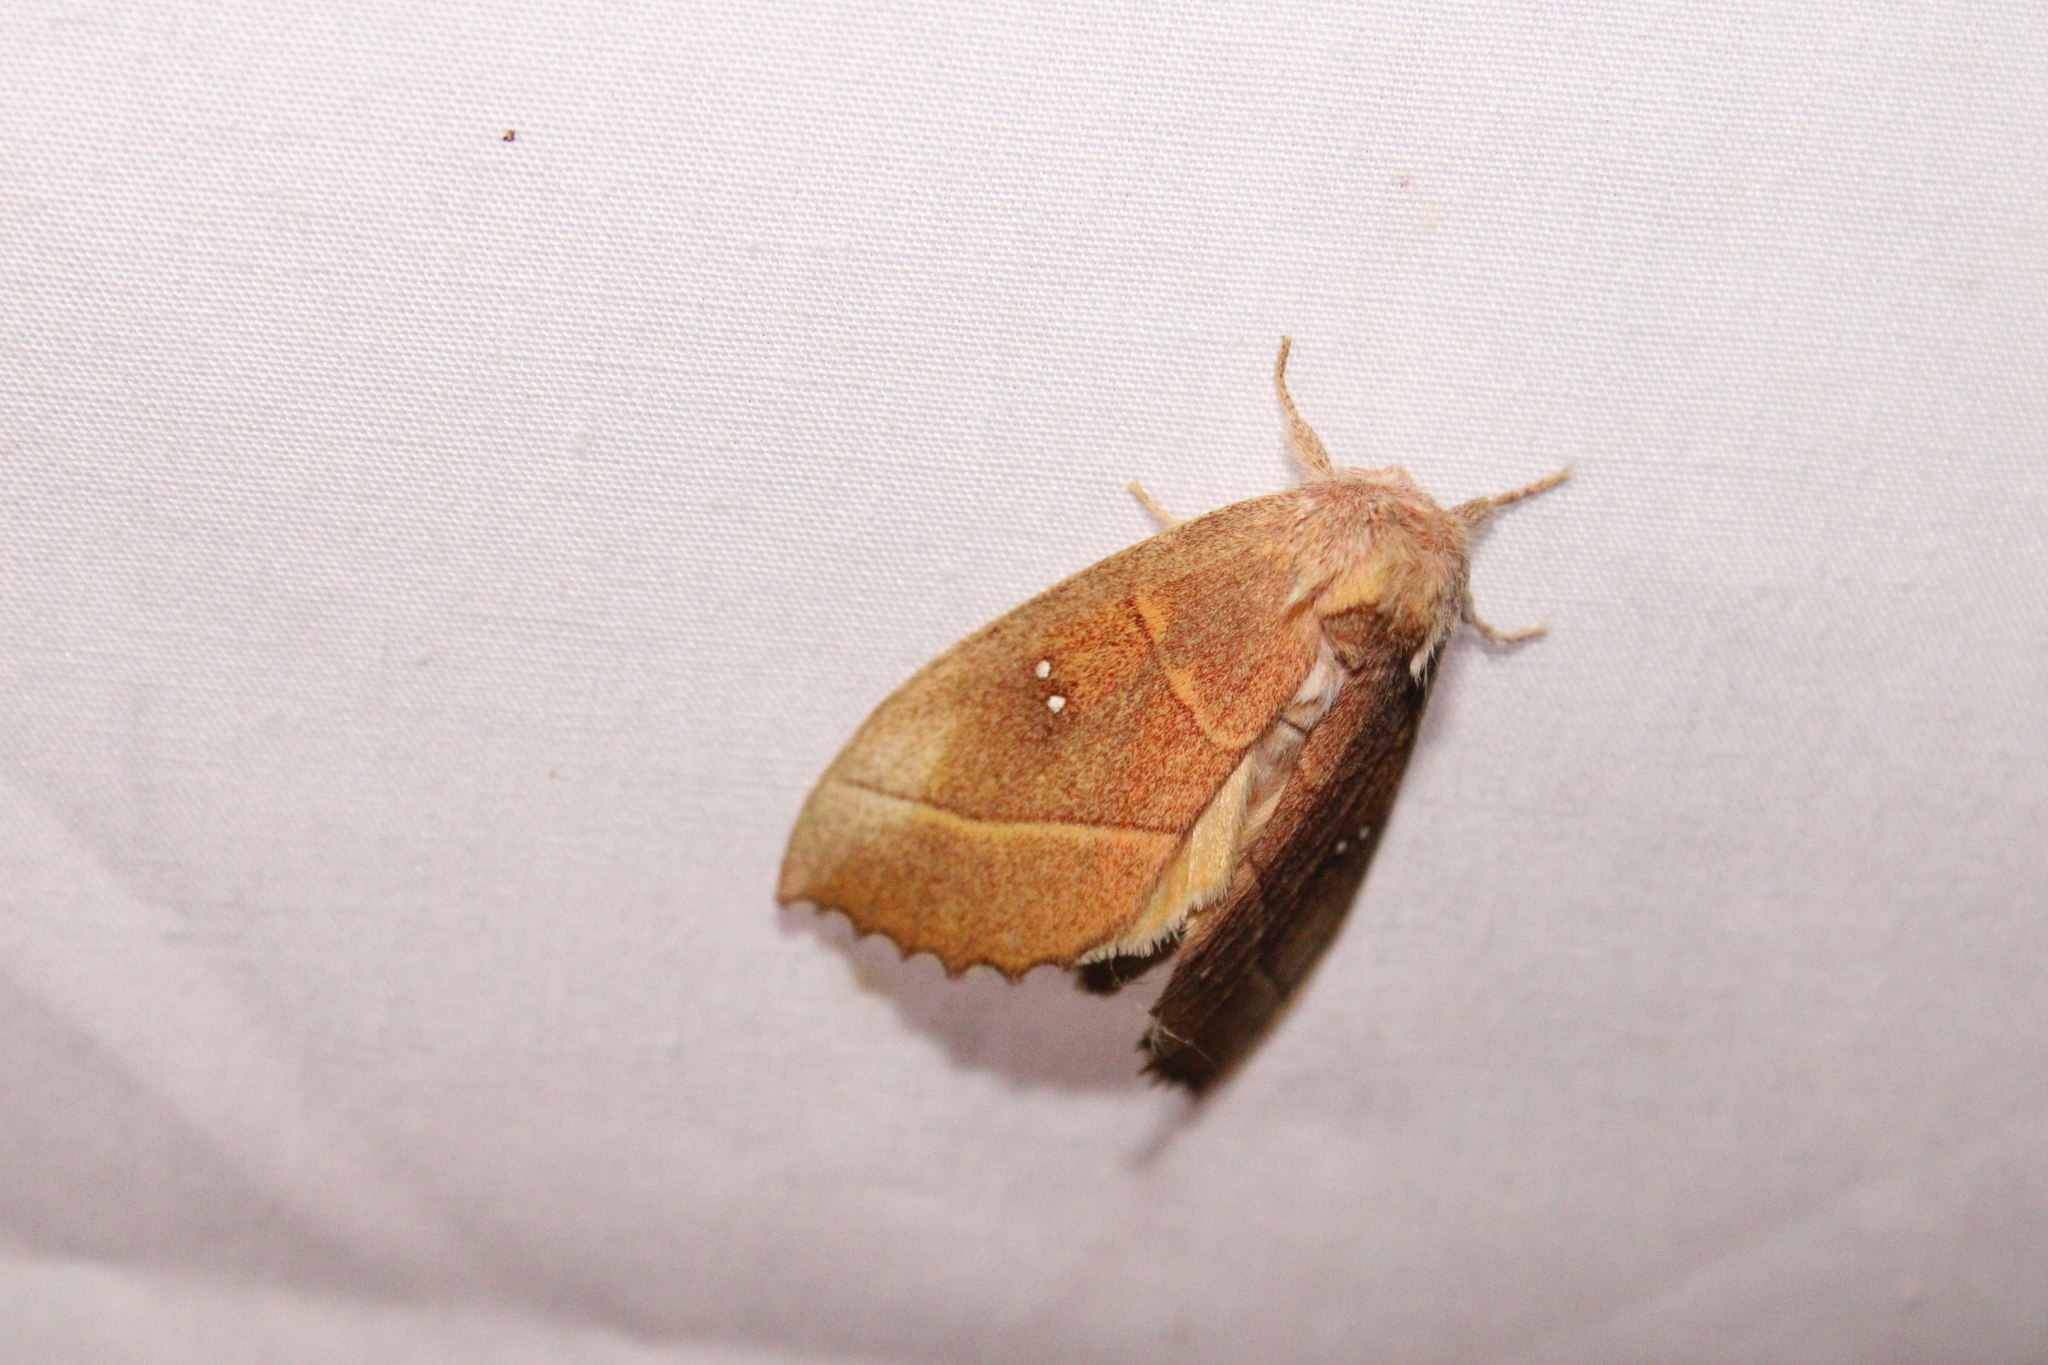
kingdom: Animalia
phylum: Arthropoda
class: Insecta
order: Lepidoptera
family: Notodontidae
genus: Nadata
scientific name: Nadata gibbosa
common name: White-dotted prominent
